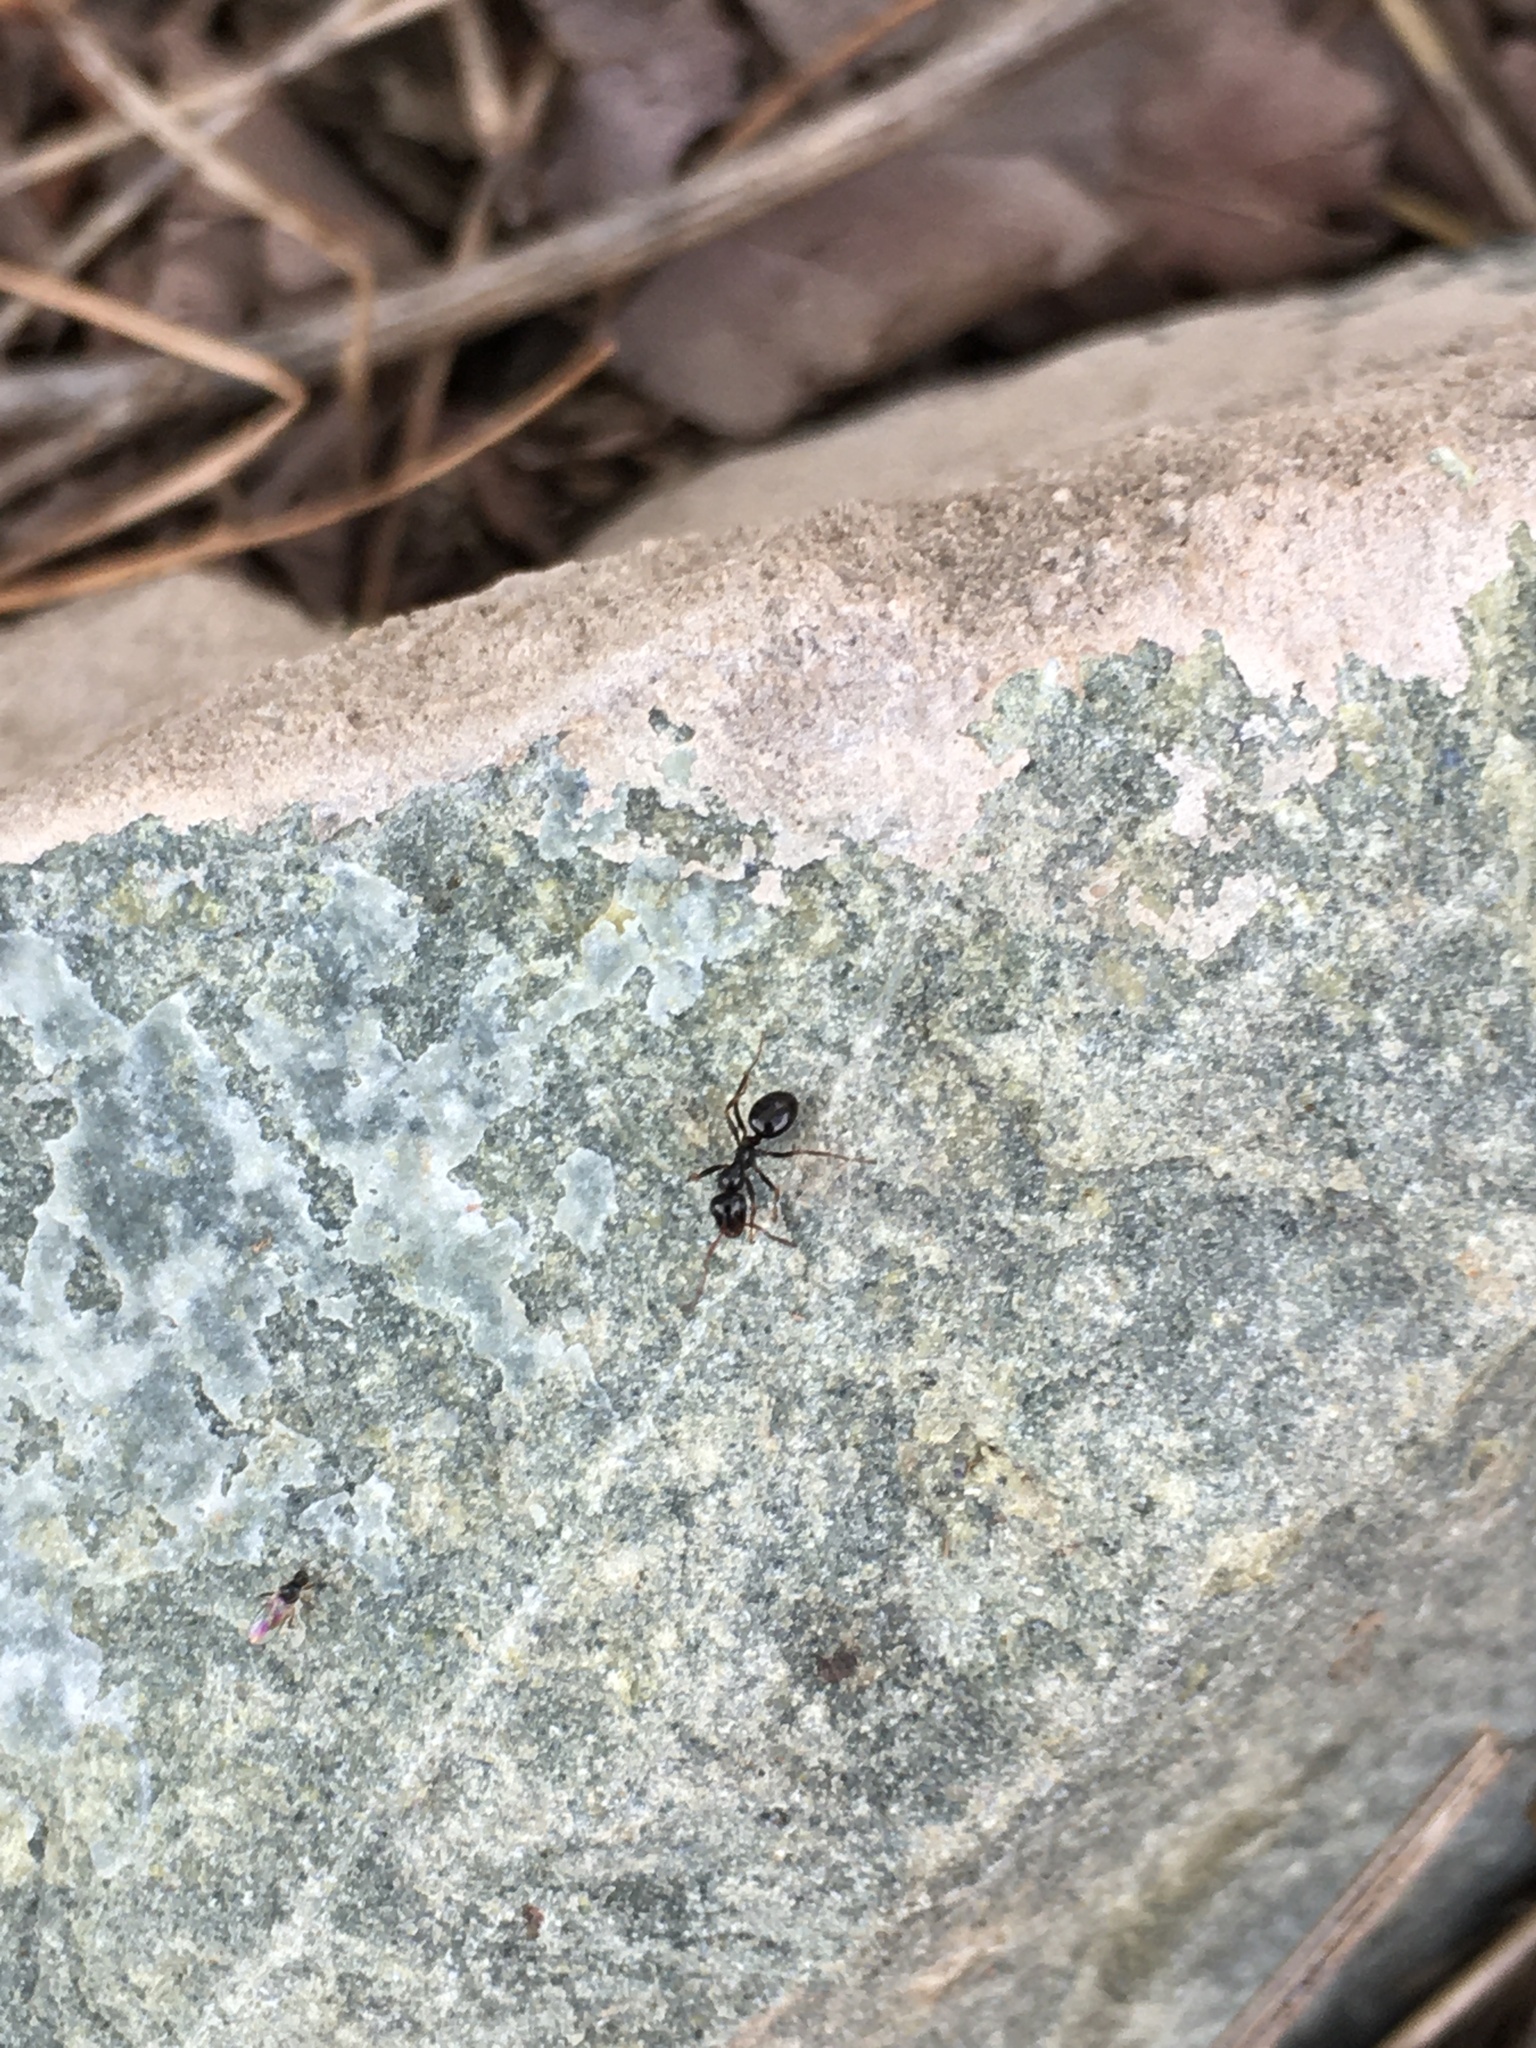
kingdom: Animalia
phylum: Arthropoda
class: Insecta
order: Hymenoptera
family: Formicidae
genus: Formica
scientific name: Formica
